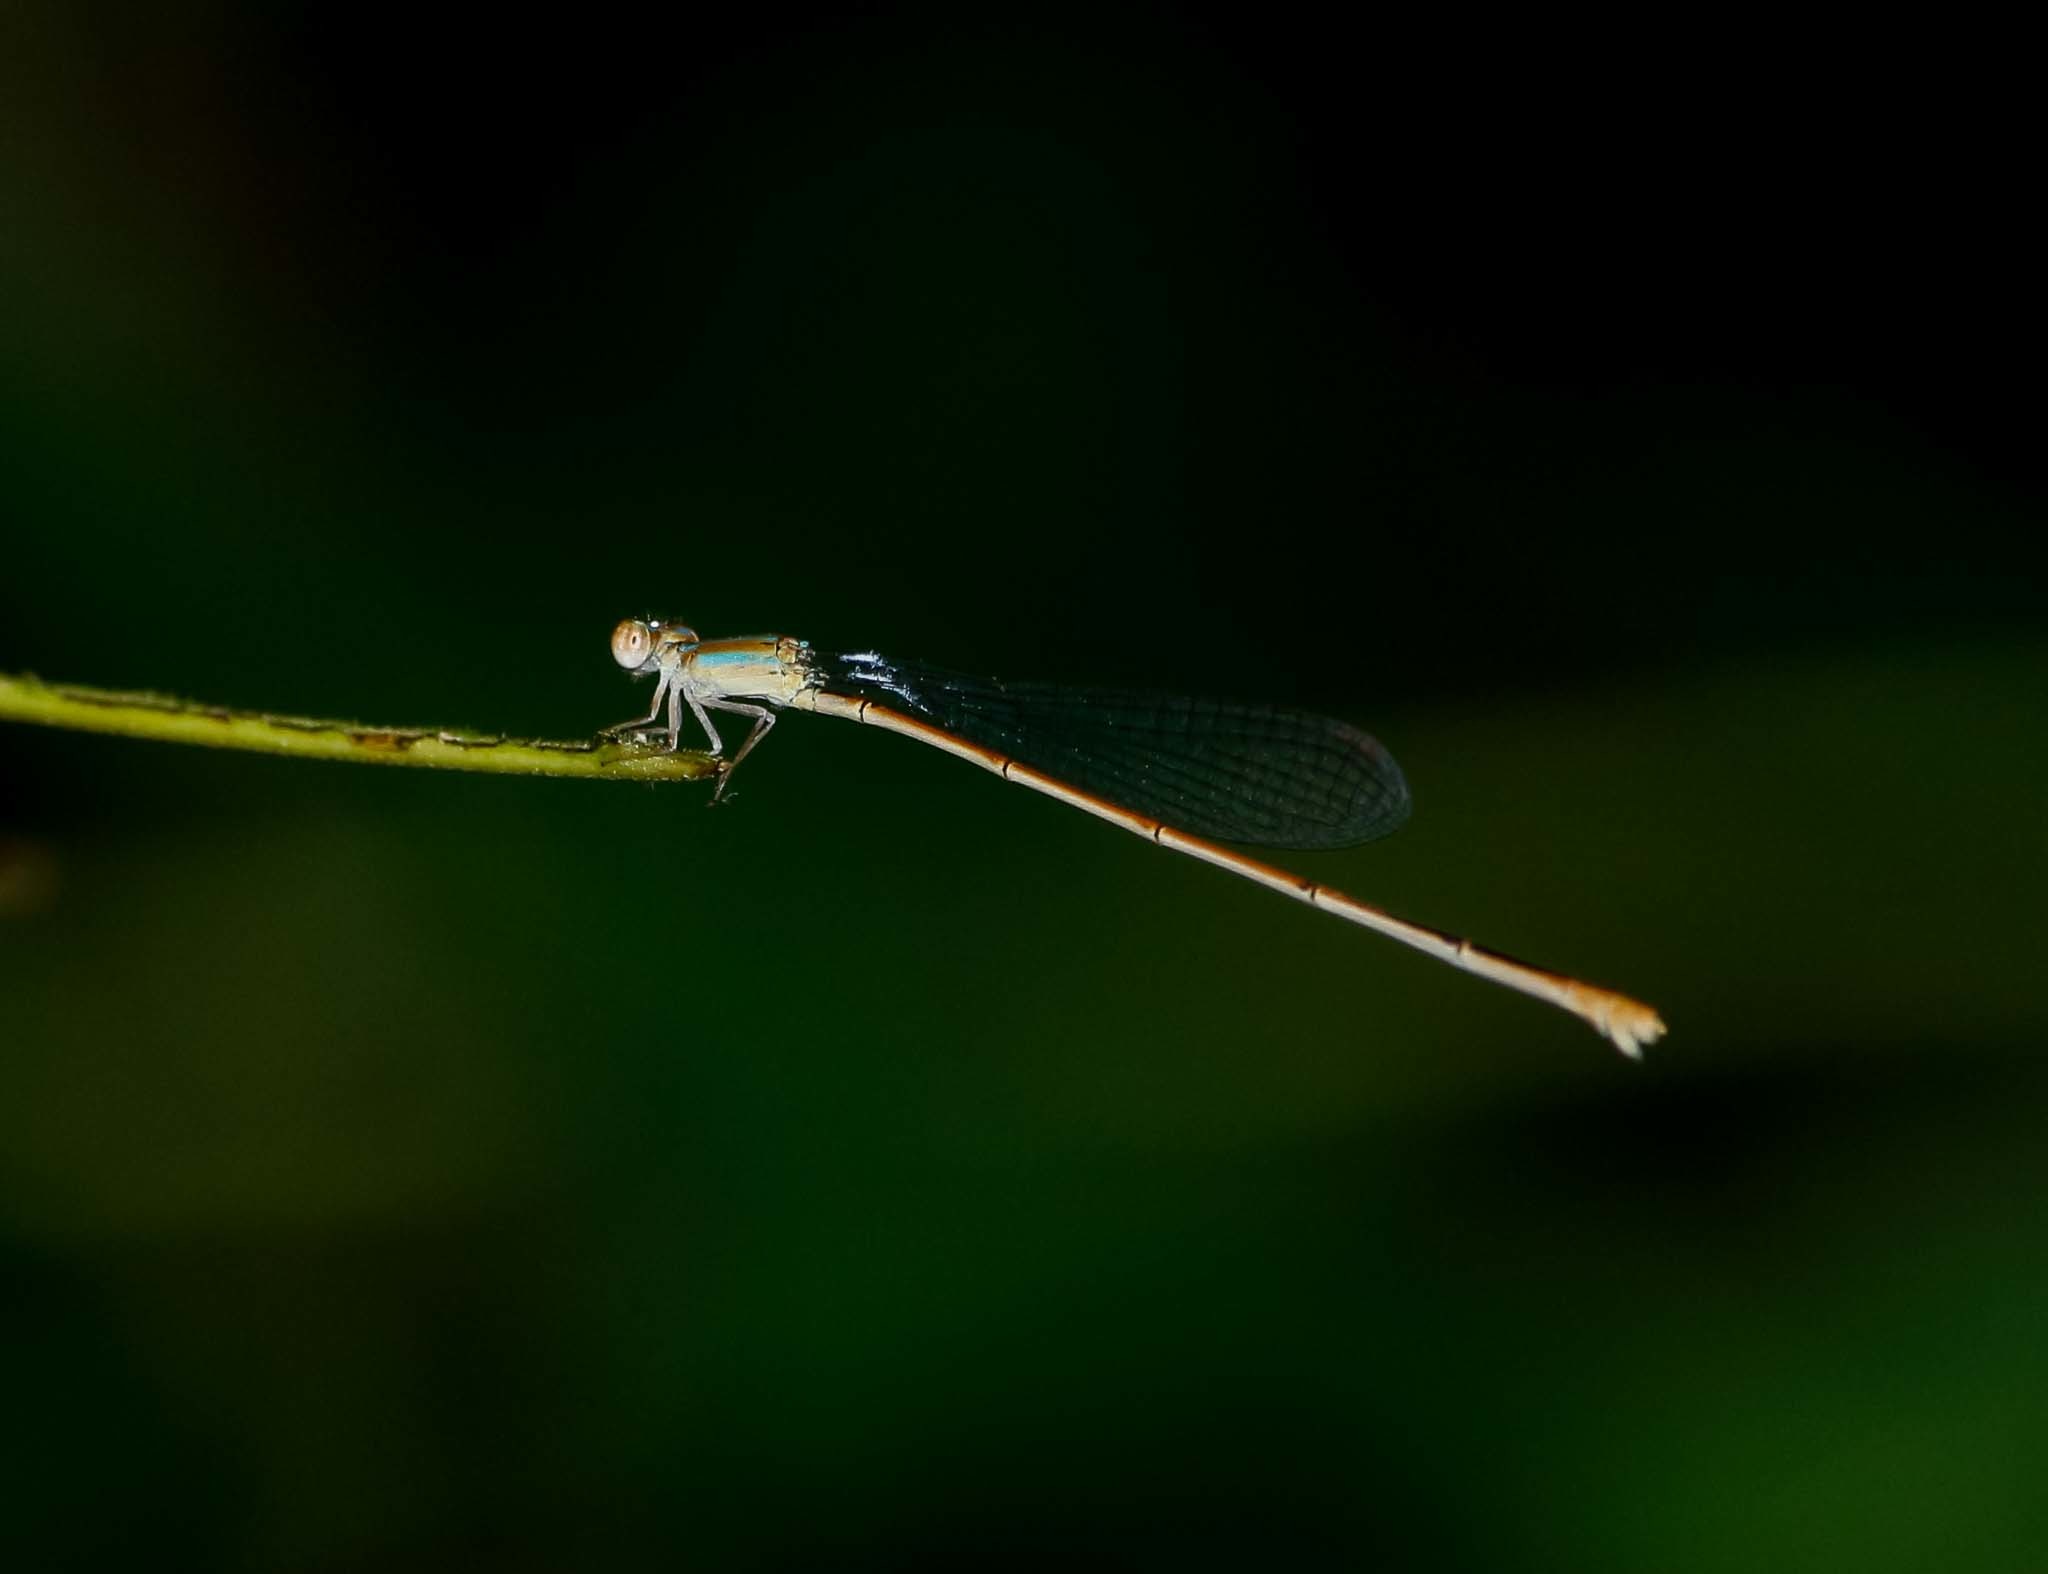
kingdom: Animalia
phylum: Arthropoda
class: Insecta
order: Odonata
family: Coenagrionidae
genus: Aciagrion
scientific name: Aciagrion pallidum
